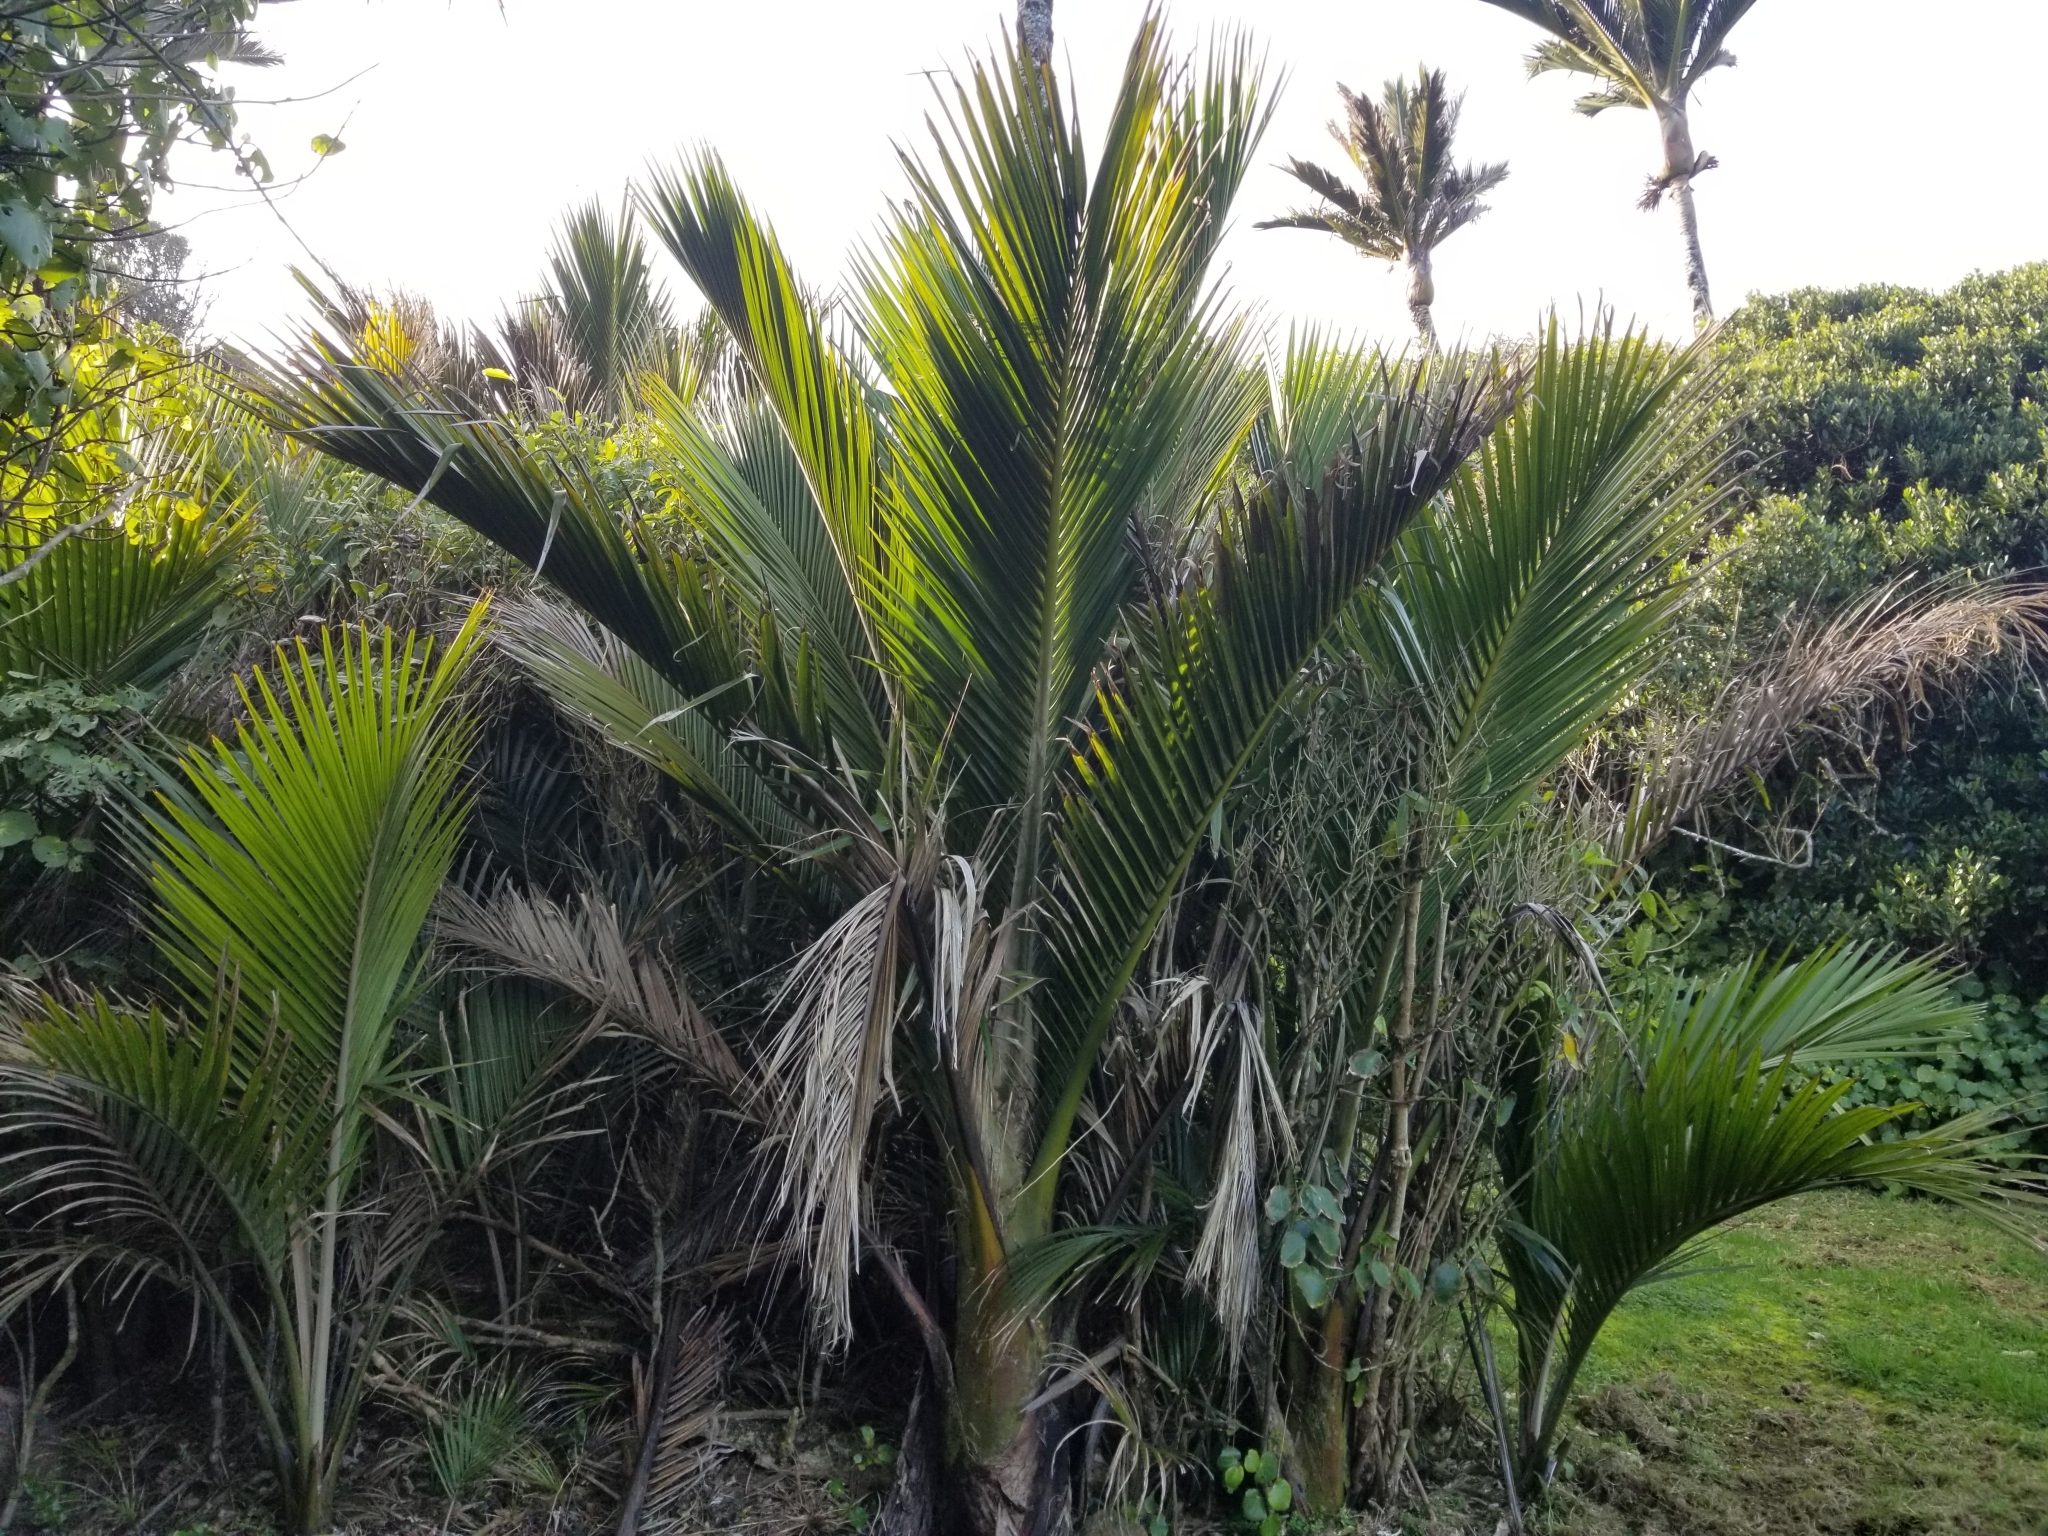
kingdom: Plantae
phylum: Tracheophyta
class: Liliopsida
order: Arecales
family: Arecaceae
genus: Rhopalostylis
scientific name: Rhopalostylis sapida
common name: Feather-duster palm
